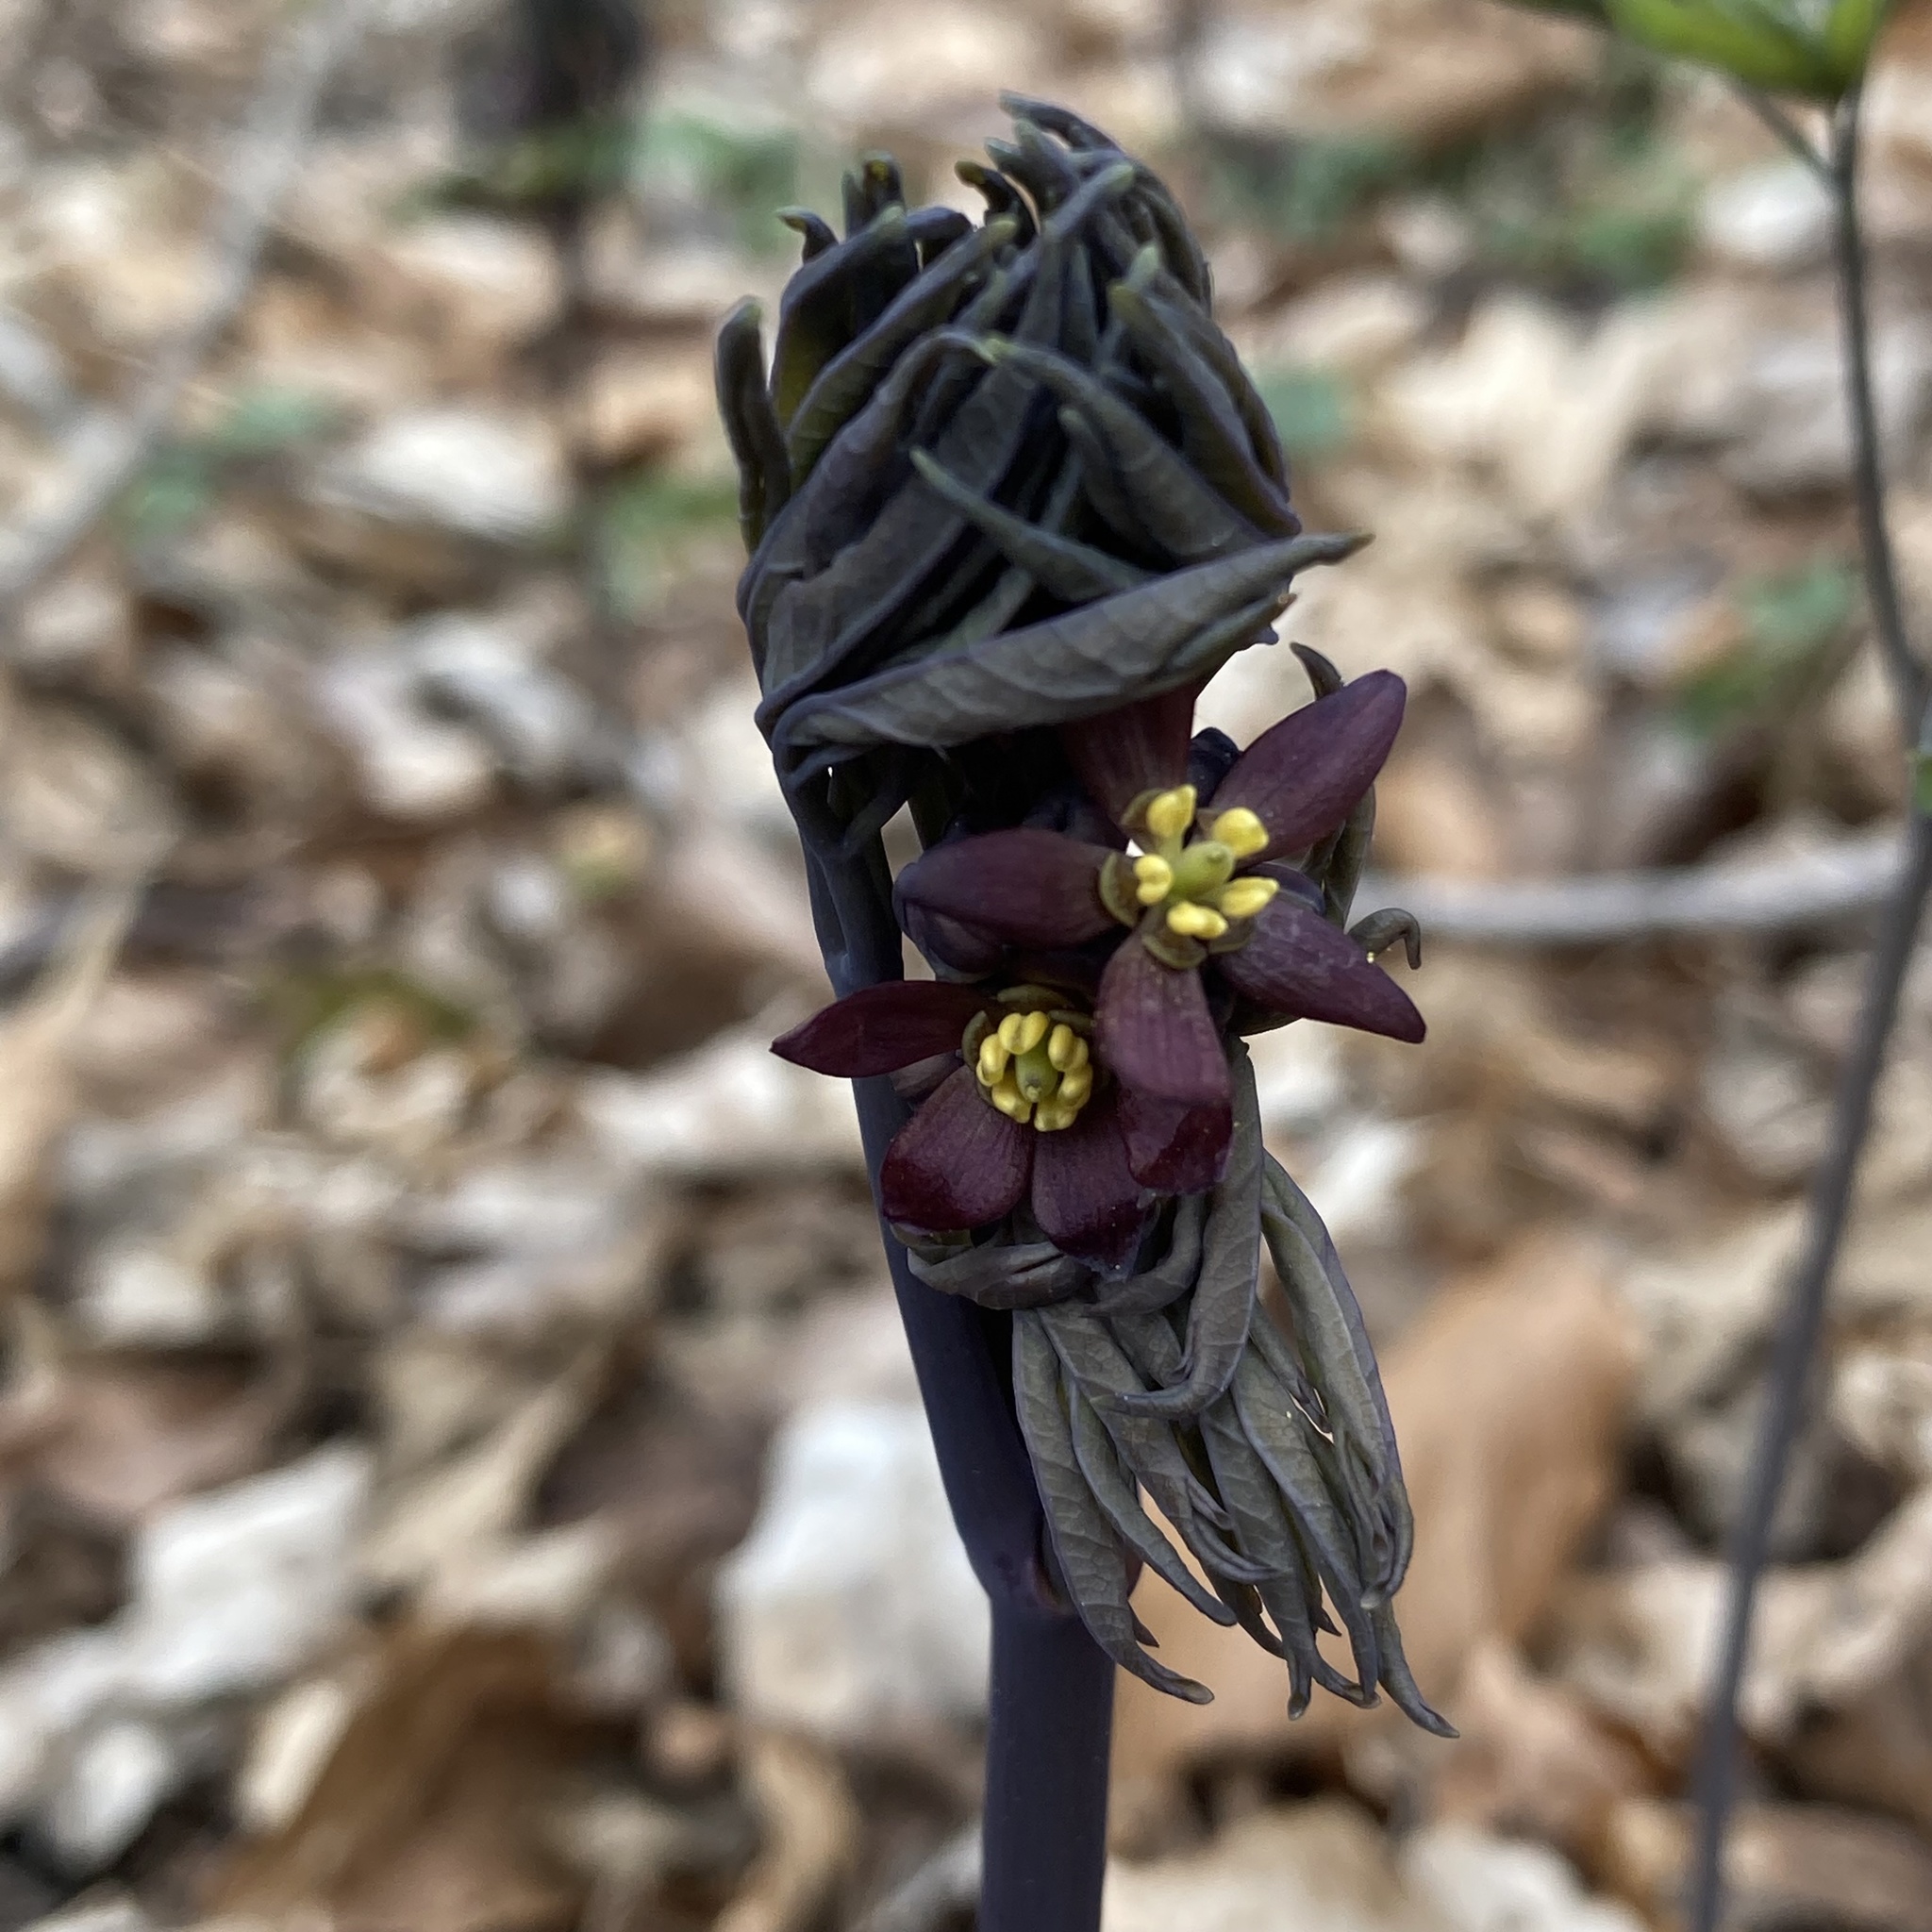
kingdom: Plantae
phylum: Tracheophyta
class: Magnoliopsida
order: Ranunculales
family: Berberidaceae
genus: Caulophyllum
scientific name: Caulophyllum giganteum
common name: Blue cohosh
